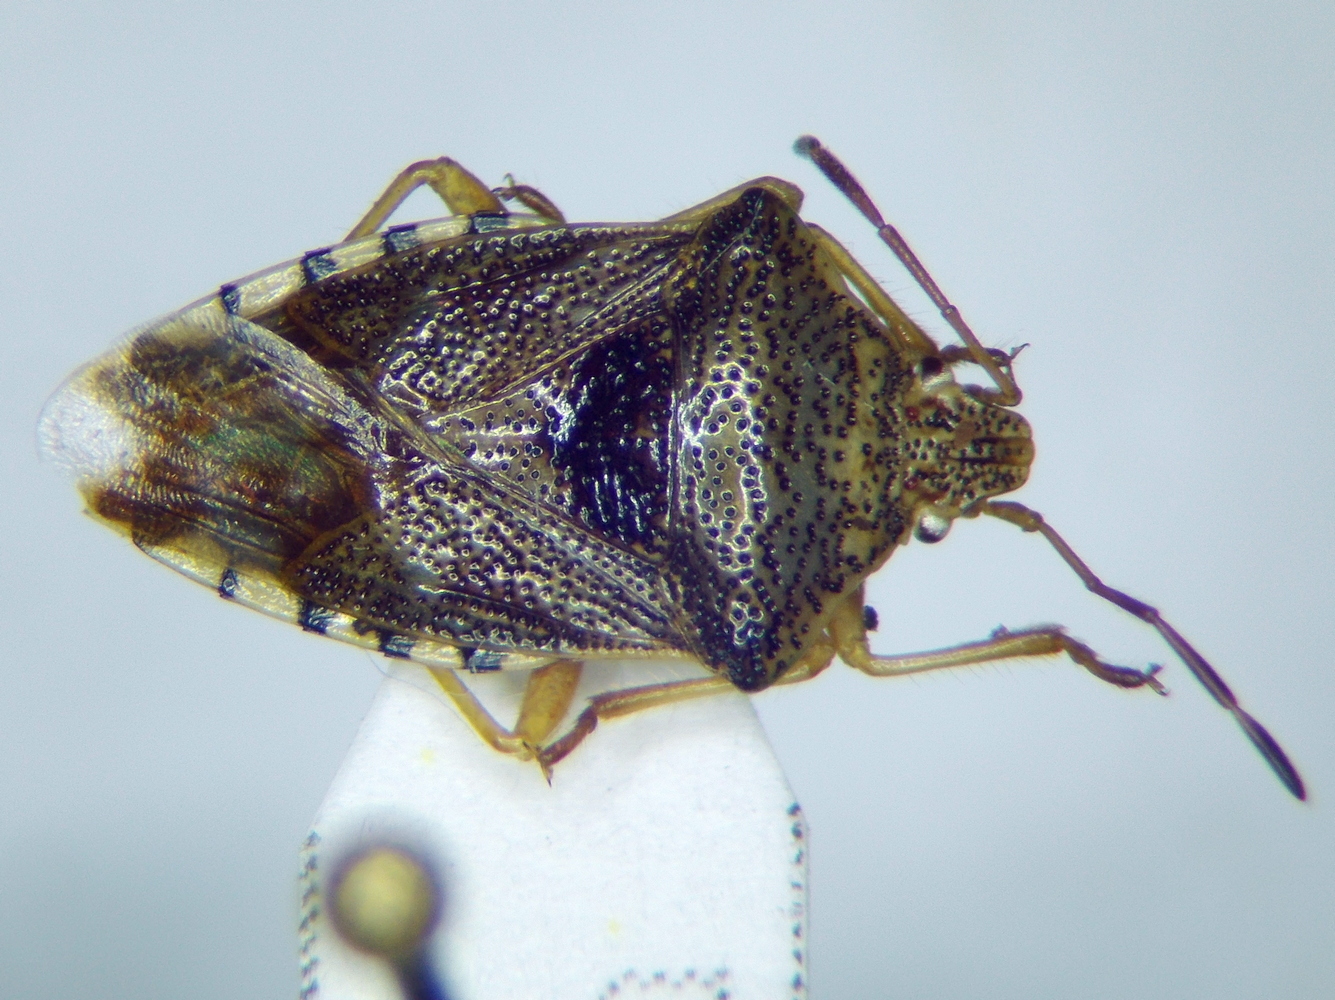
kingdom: Animalia
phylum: Arthropoda
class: Insecta
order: Hemiptera
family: Acanthosomatidae
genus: Elasmucha
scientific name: Elasmucha grisea
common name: Parent bug
